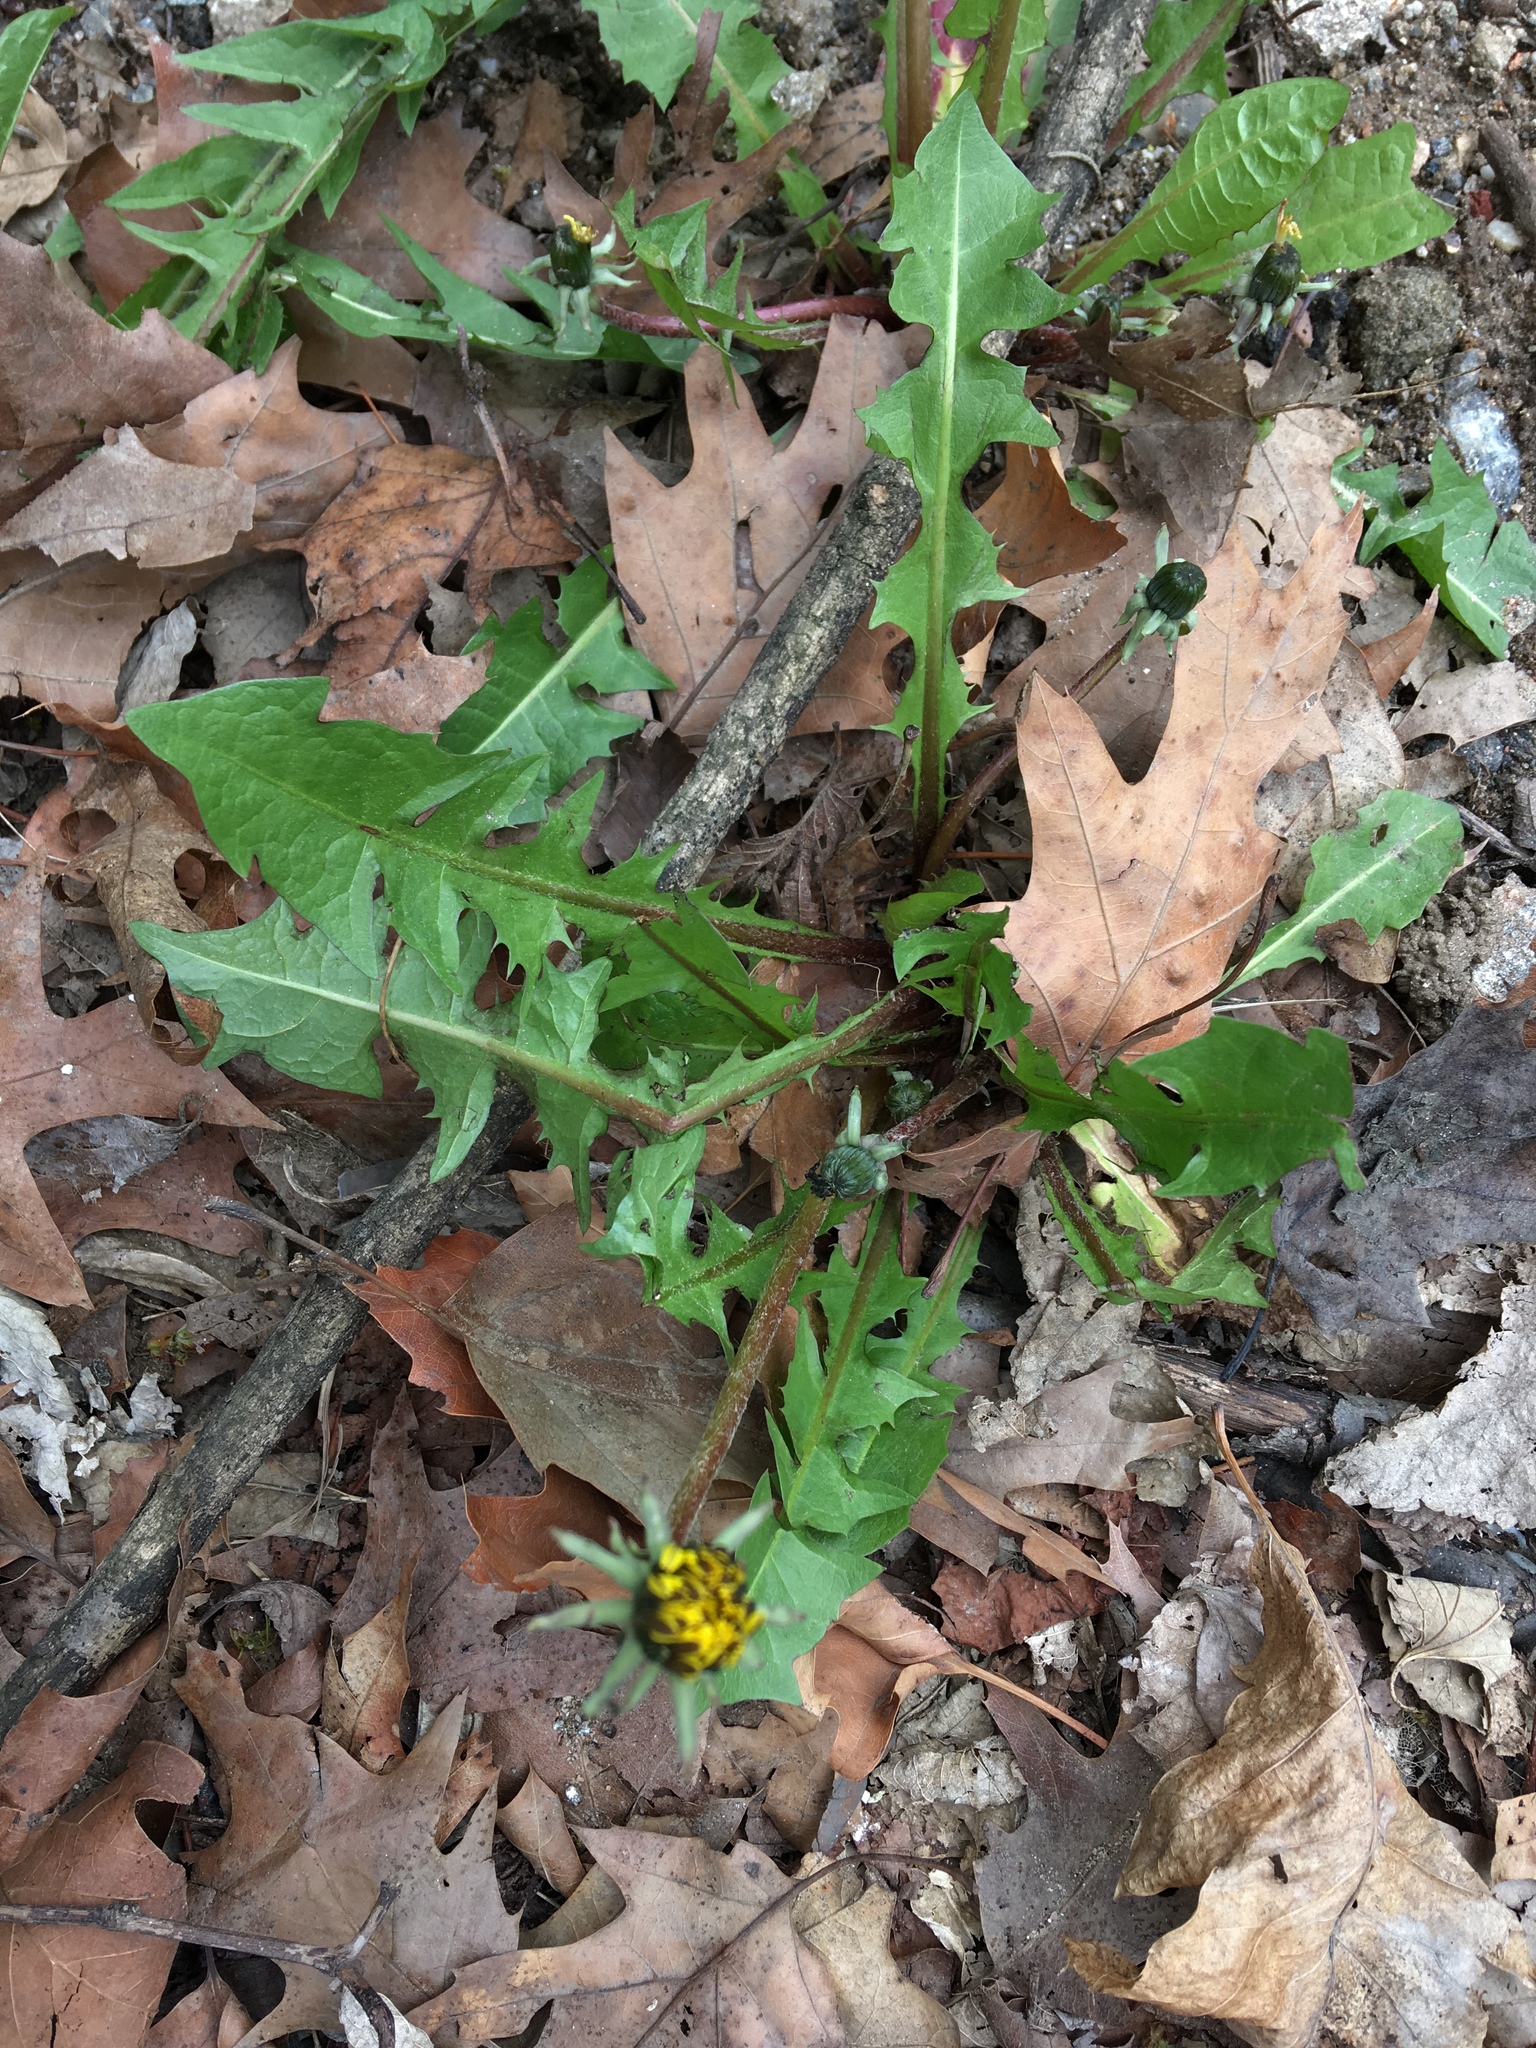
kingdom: Plantae
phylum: Tracheophyta
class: Magnoliopsida
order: Asterales
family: Asteraceae
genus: Taraxacum
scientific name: Taraxacum officinale
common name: Common dandelion
